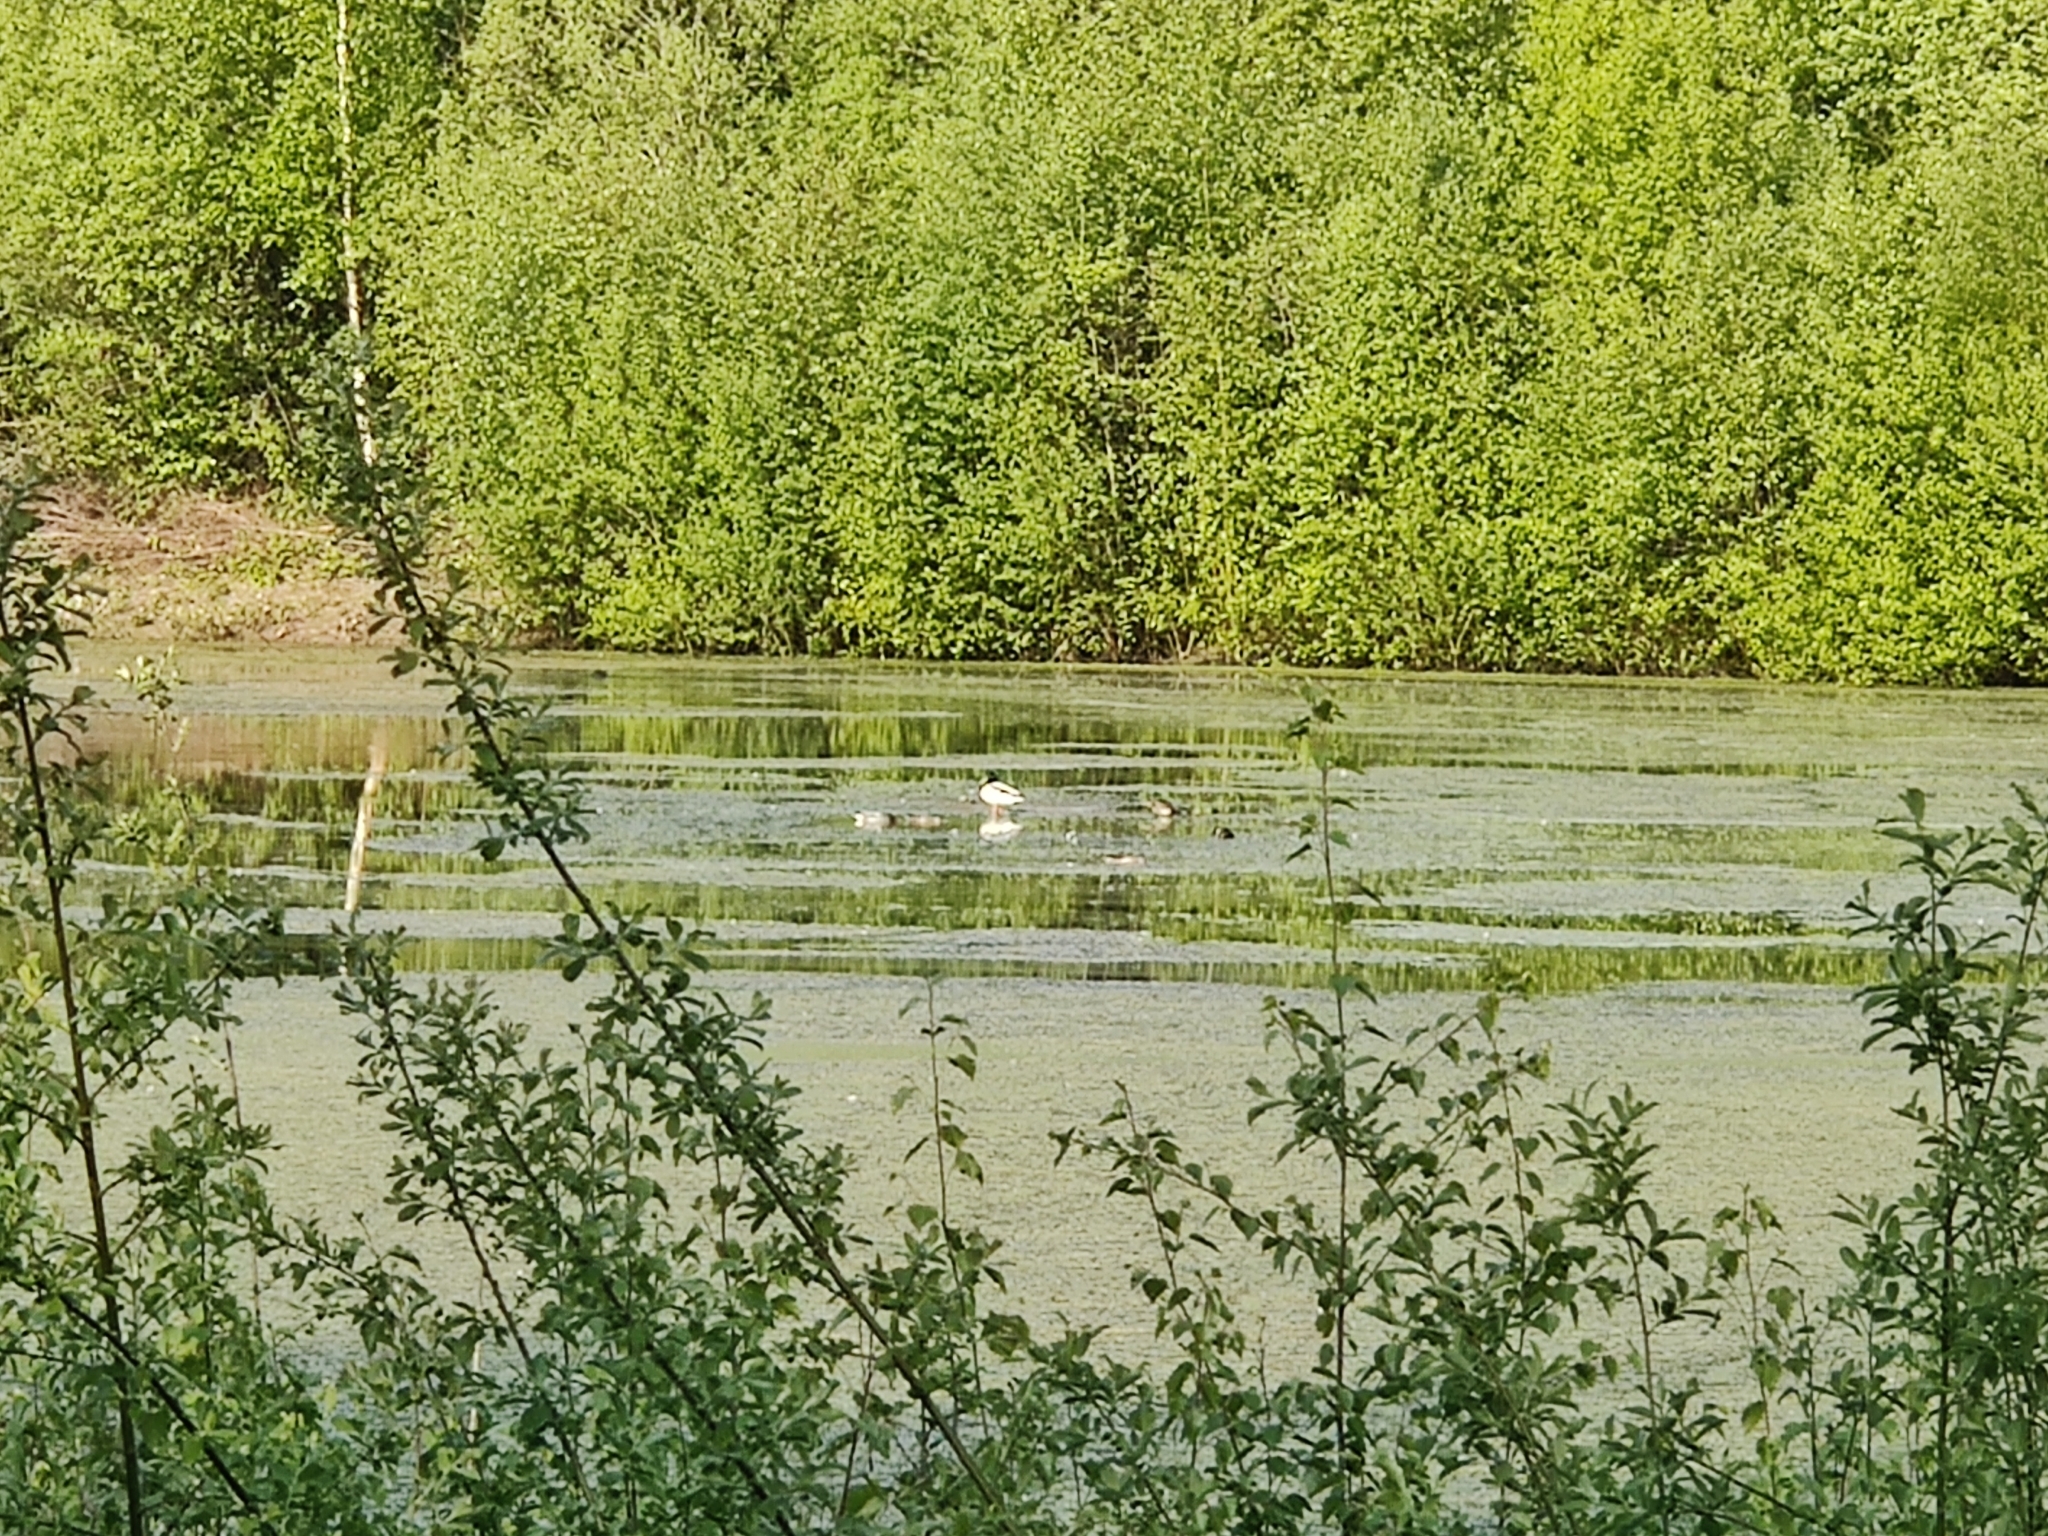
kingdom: Animalia
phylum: Chordata
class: Aves
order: Anseriformes
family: Anatidae
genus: Anas
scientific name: Anas crecca
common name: Eurasian teal
